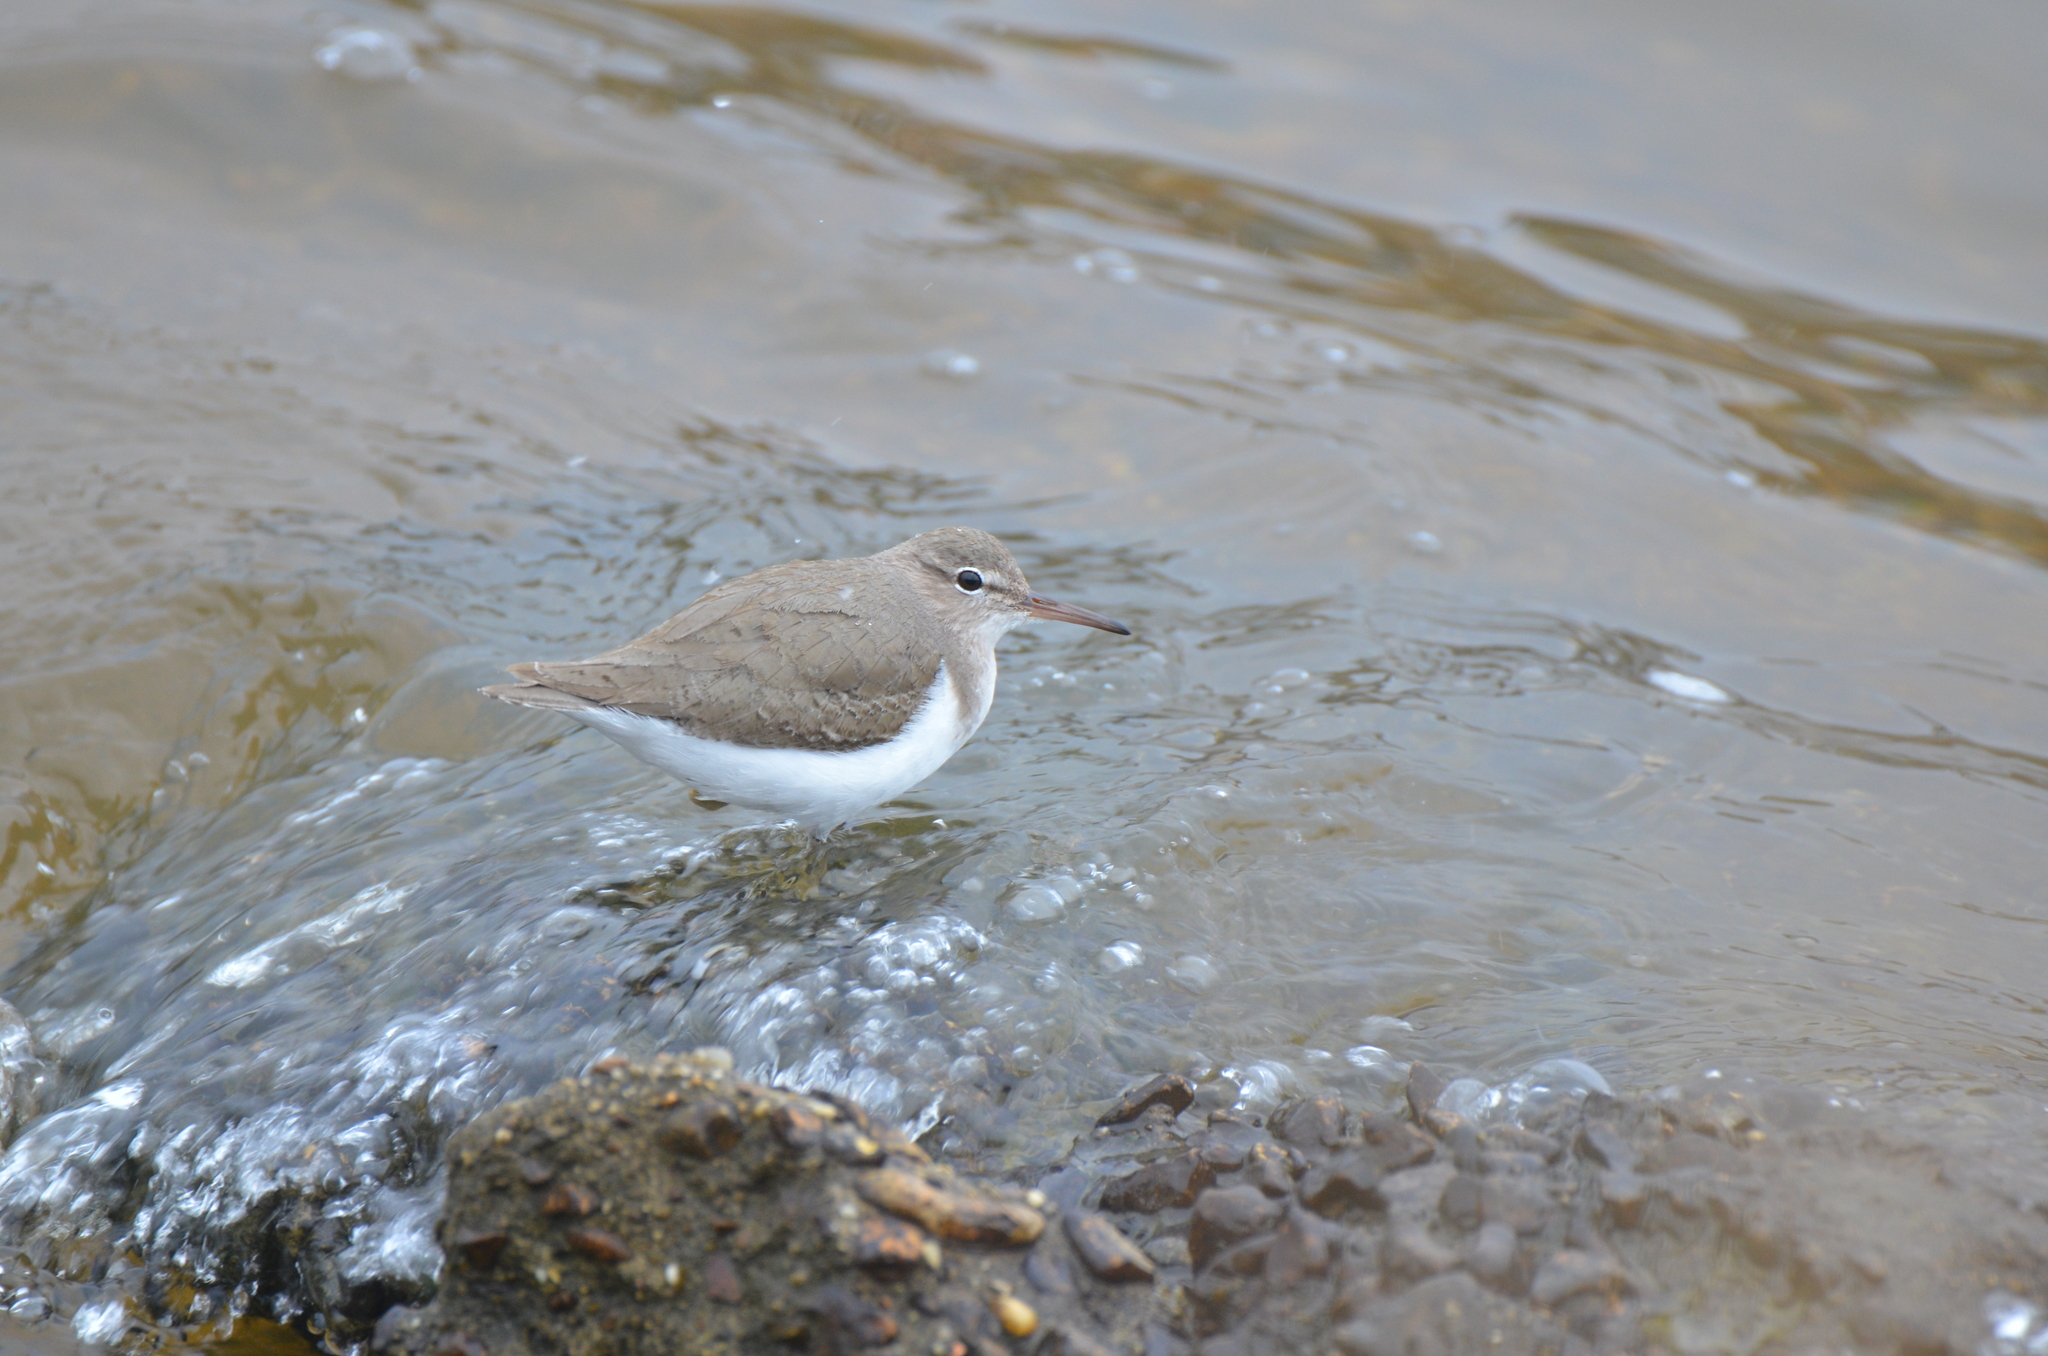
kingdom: Animalia
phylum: Chordata
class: Aves
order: Charadriiformes
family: Scolopacidae
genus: Actitis
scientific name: Actitis macularius
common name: Spotted sandpiper
